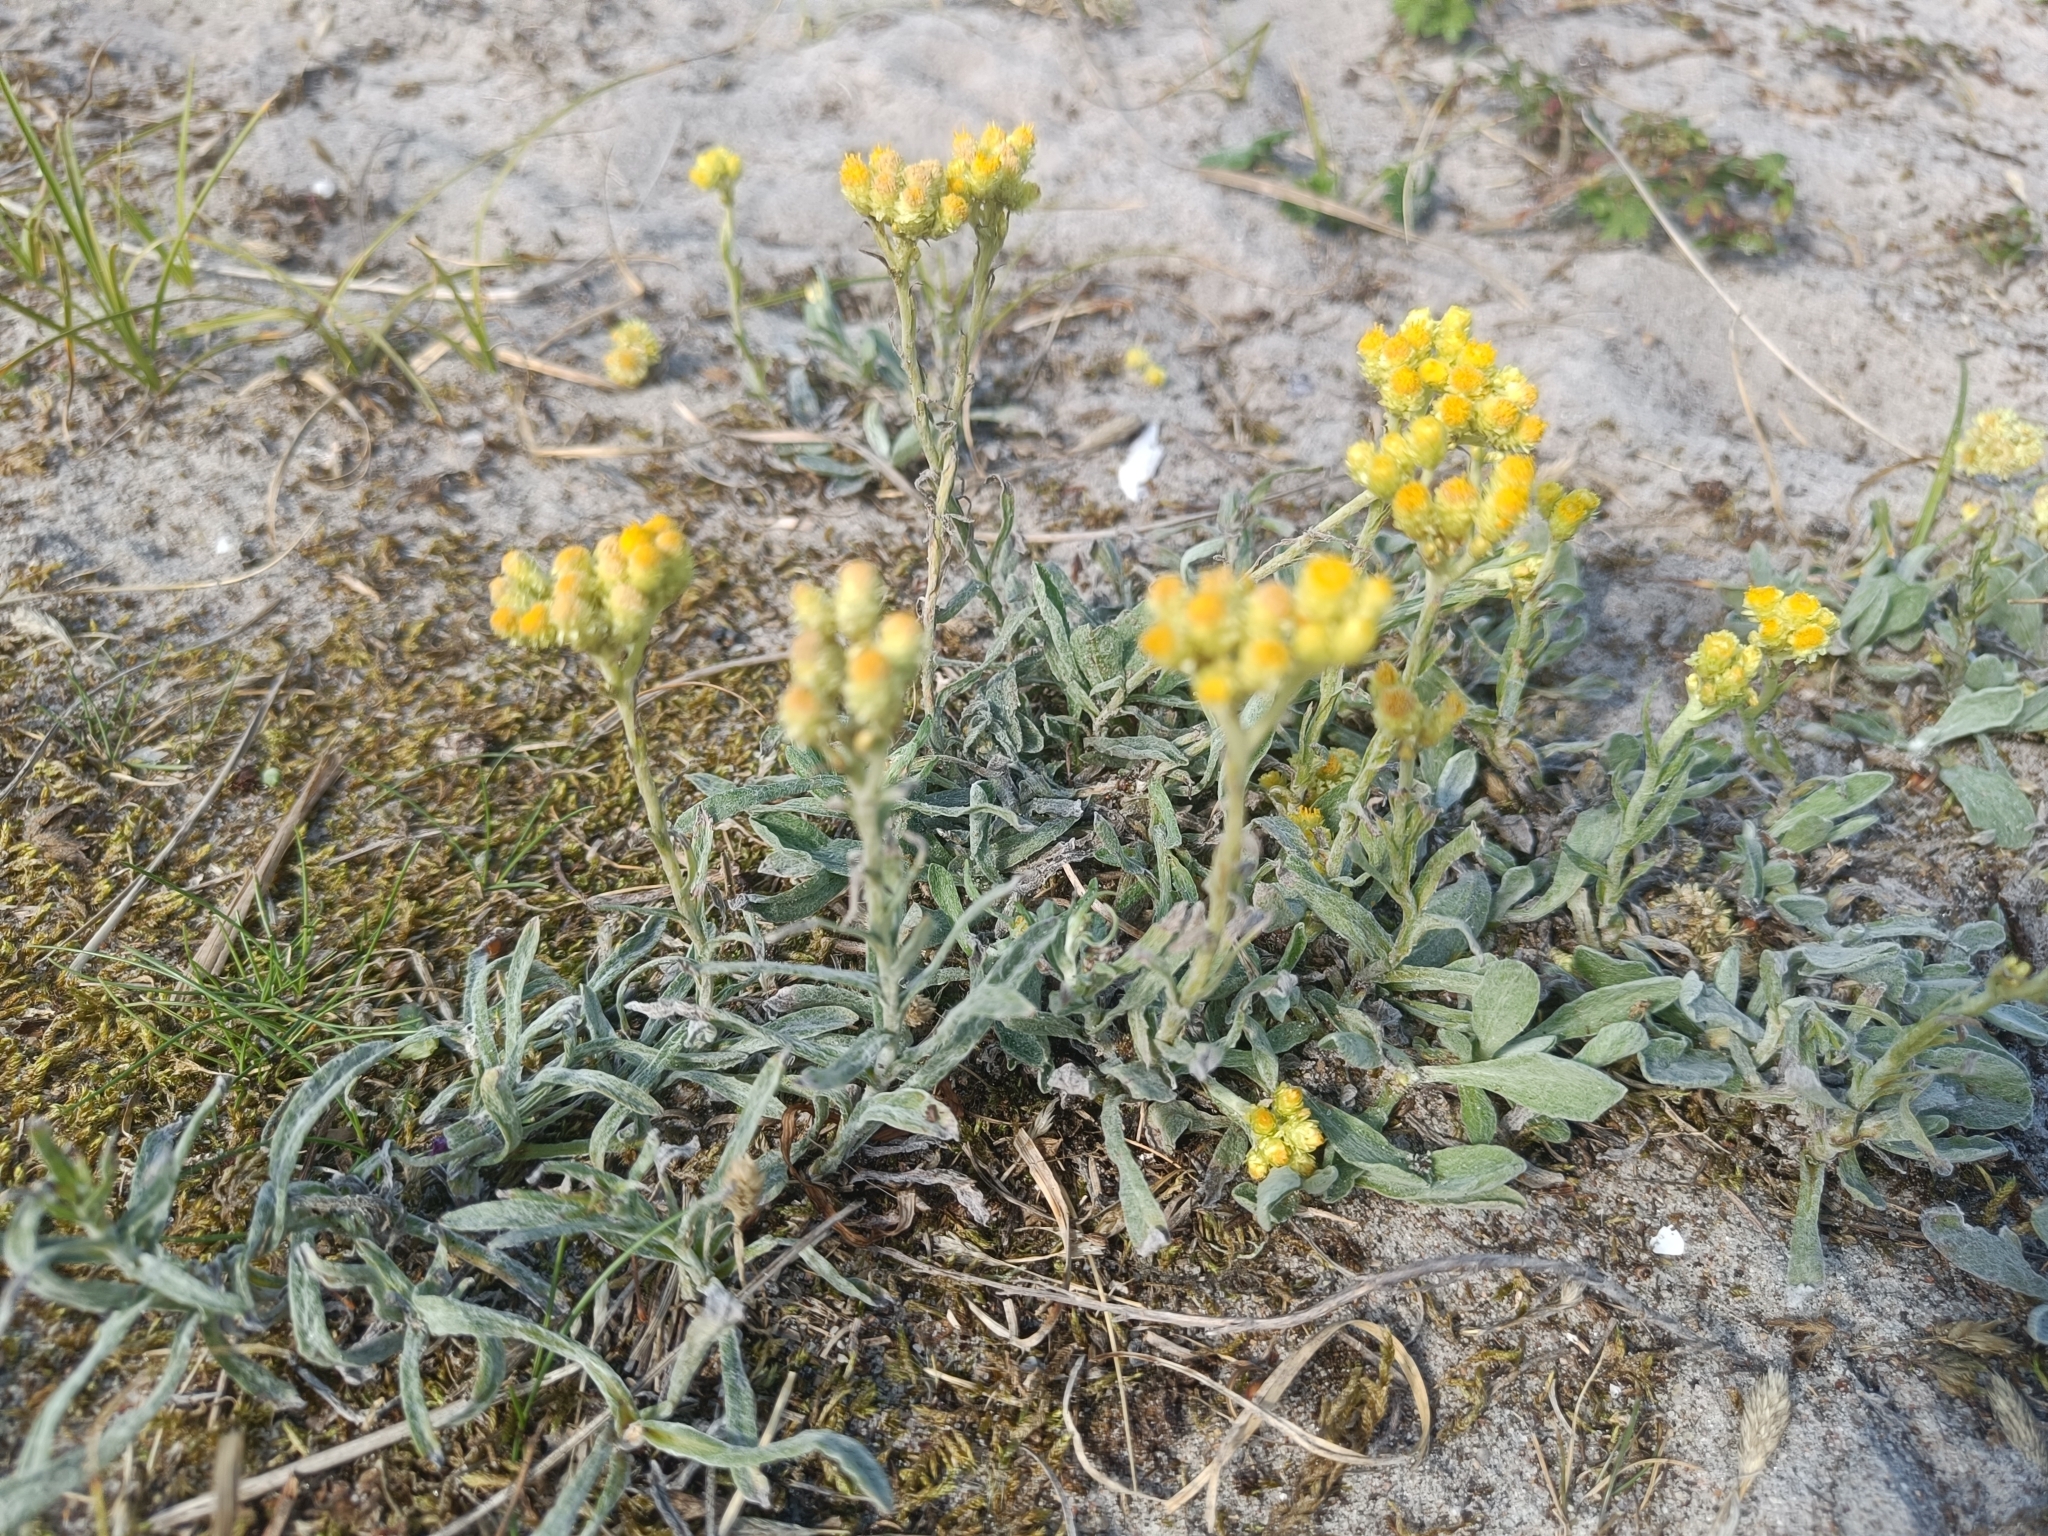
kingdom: Plantae
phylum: Tracheophyta
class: Magnoliopsida
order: Asterales
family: Asteraceae
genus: Helichrysum
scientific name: Helichrysum arenarium
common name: Strawflower
